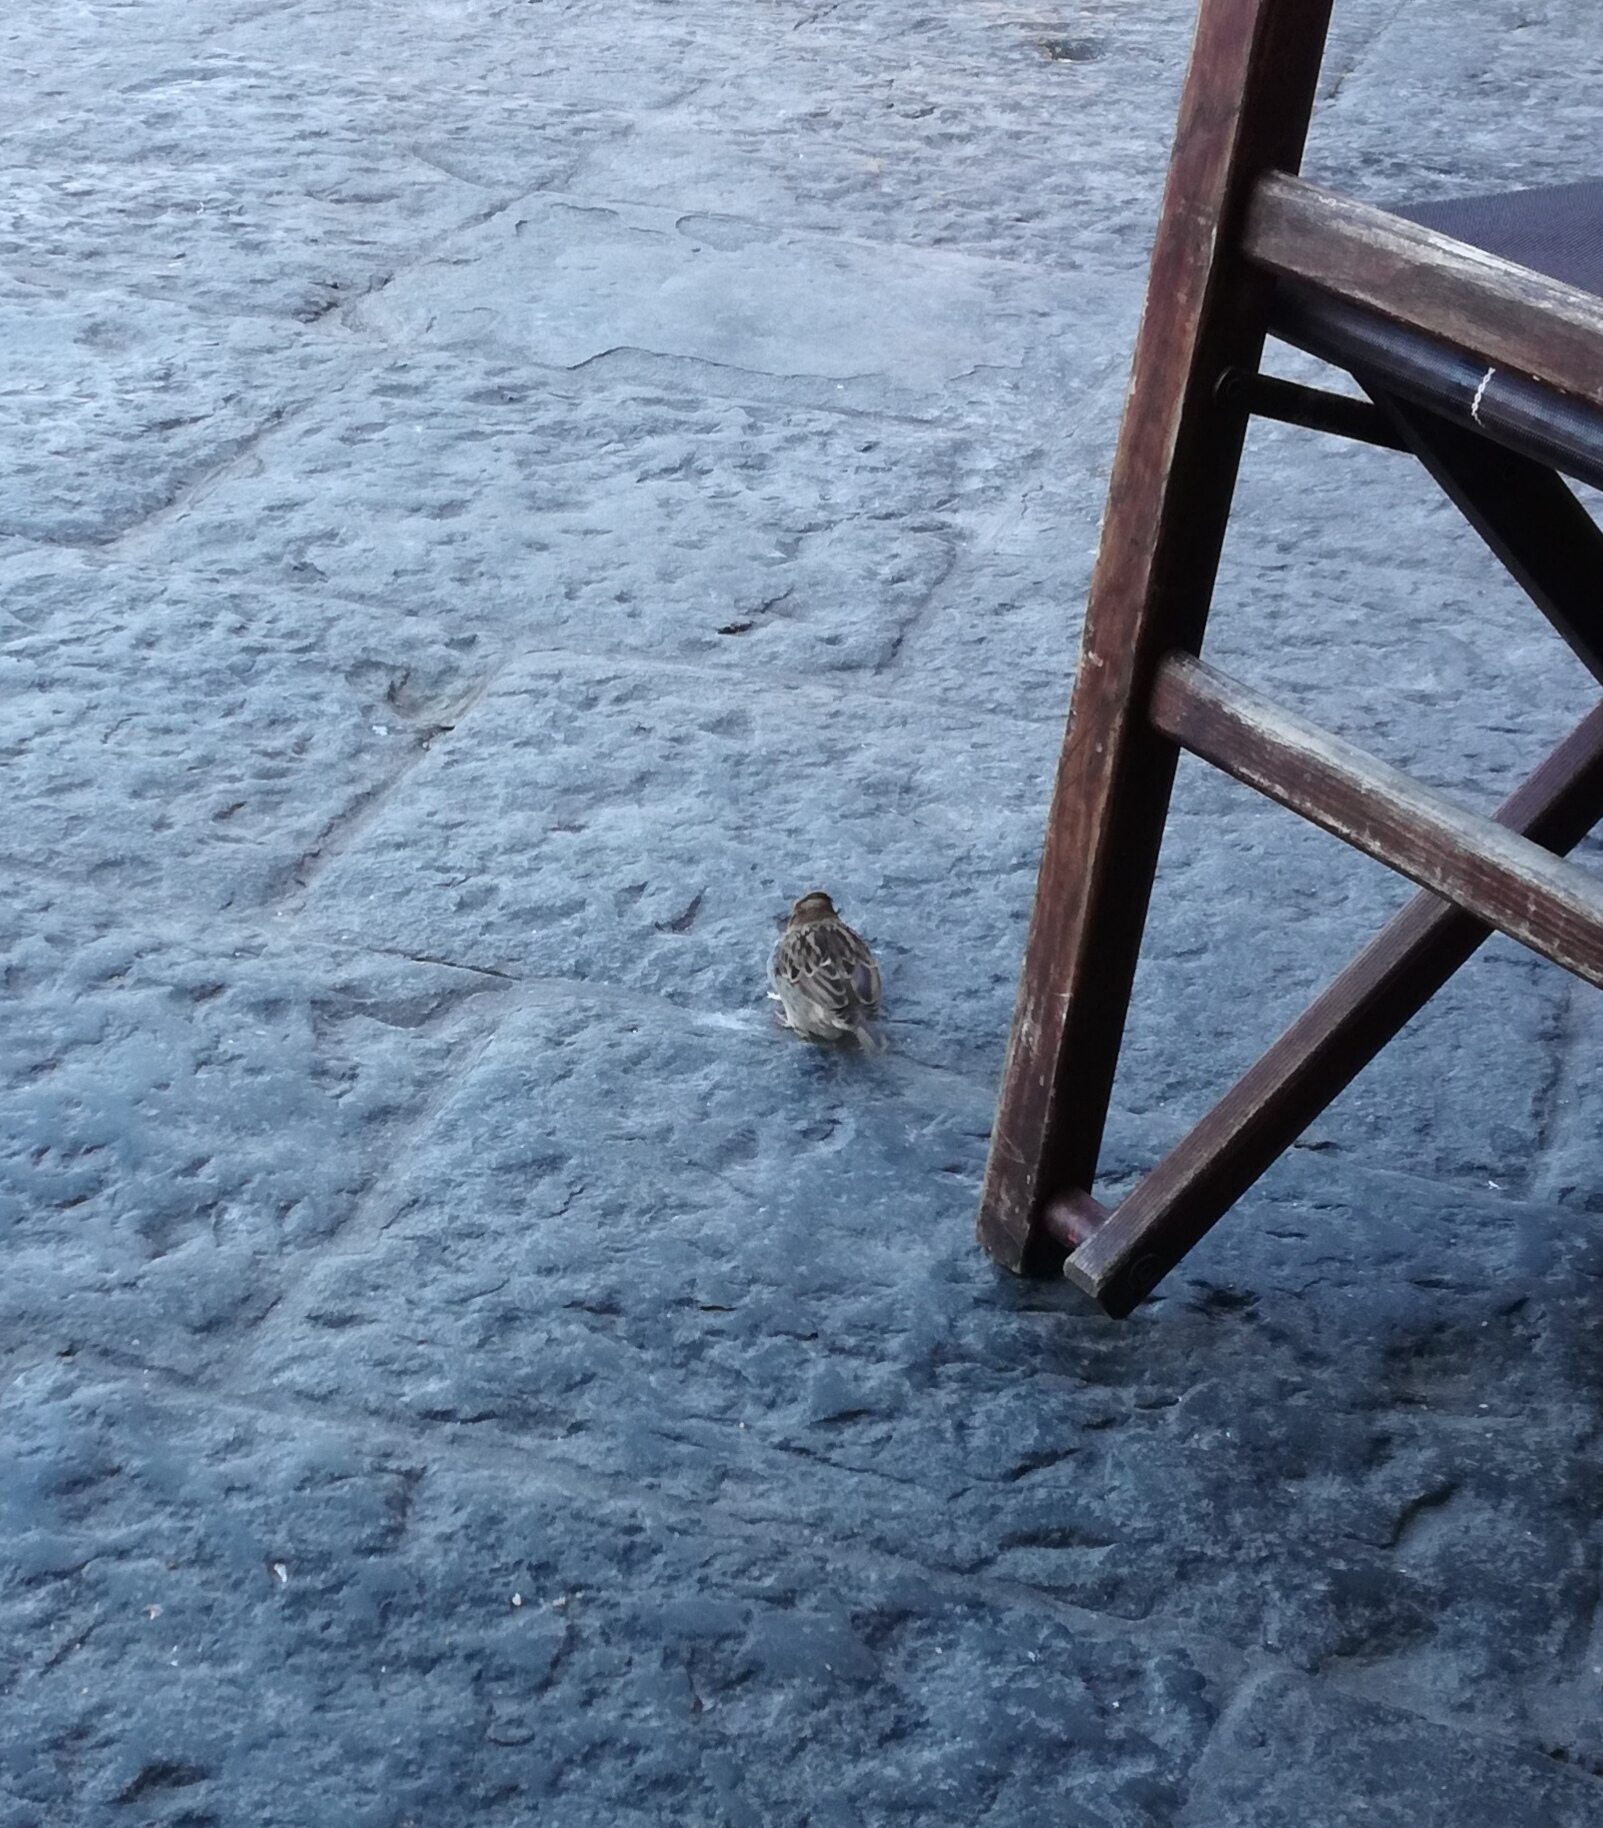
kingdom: Animalia
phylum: Chordata
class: Aves
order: Passeriformes
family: Passeridae
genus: Passer
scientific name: Passer italiae
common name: Italian sparrow
